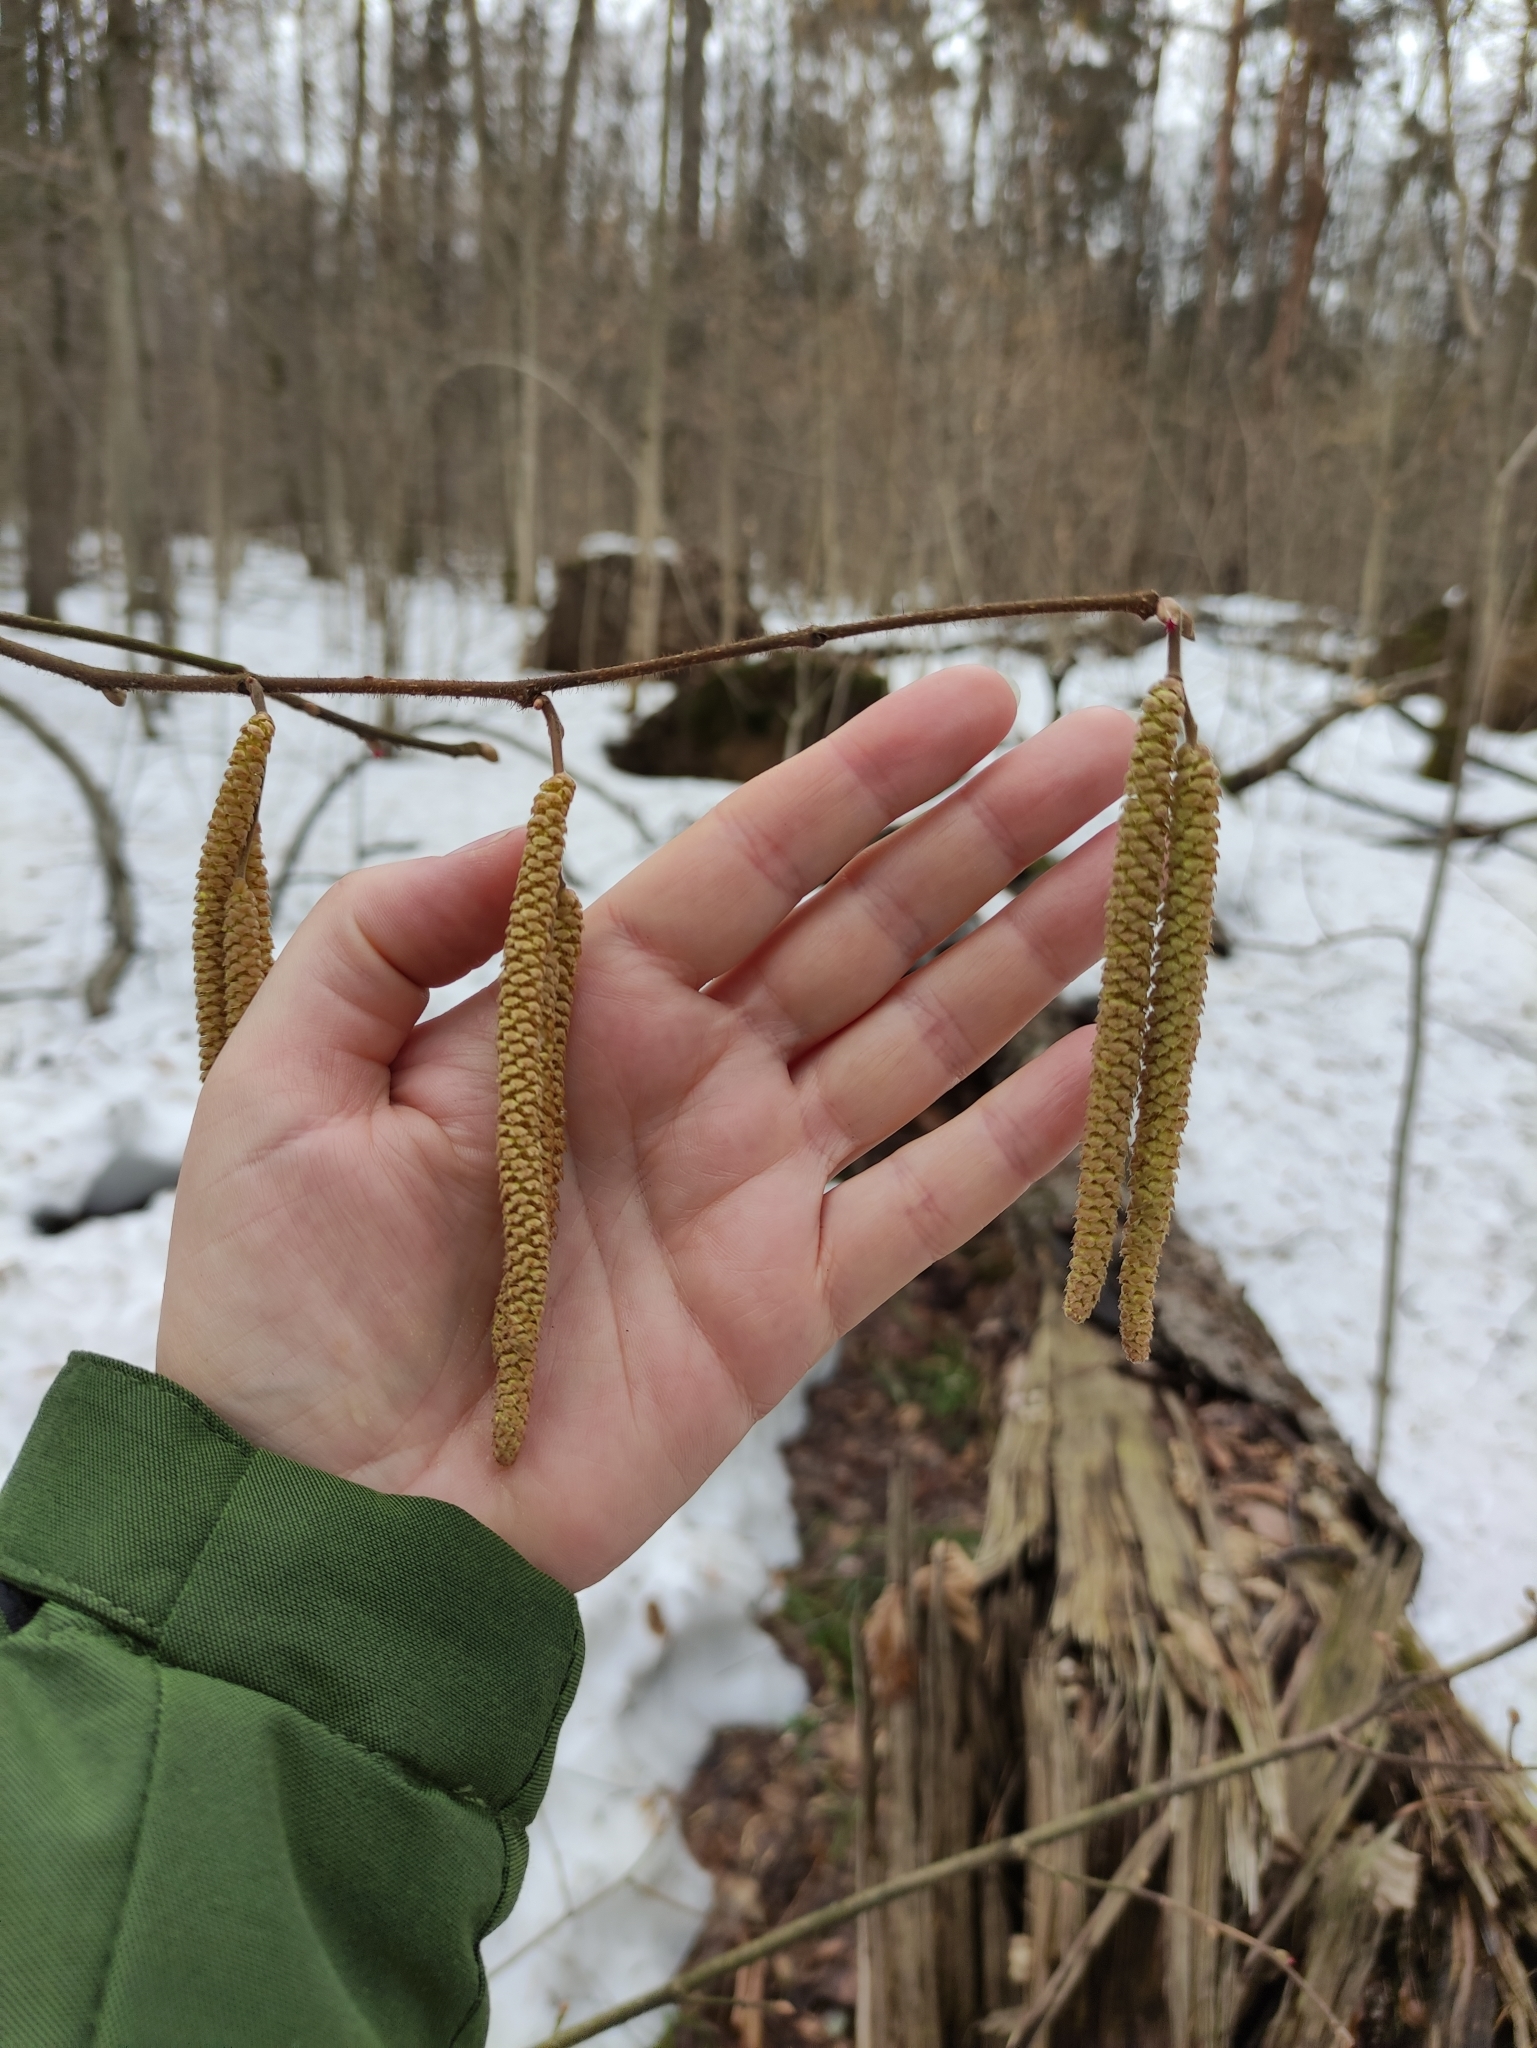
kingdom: Plantae
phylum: Tracheophyta
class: Magnoliopsida
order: Fagales
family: Betulaceae
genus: Corylus
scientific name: Corylus avellana
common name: European hazel
